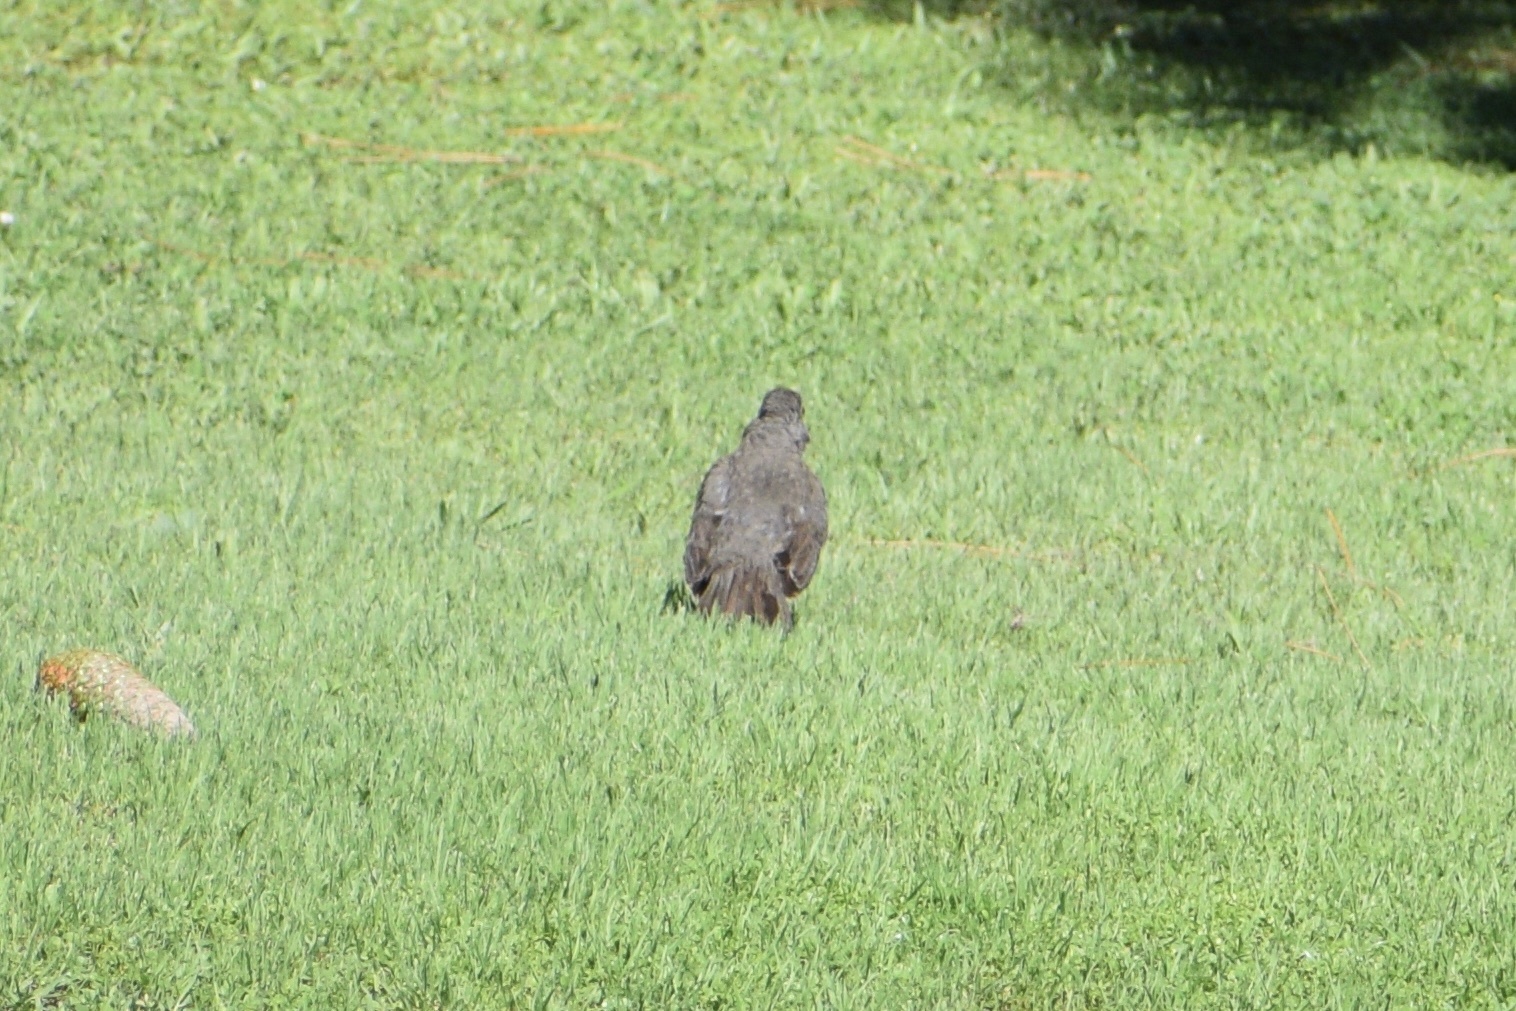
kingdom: Animalia
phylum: Chordata
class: Aves
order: Passeriformes
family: Turdidae
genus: Turdus
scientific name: Turdus rufiventris
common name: Rufous-bellied thrush
